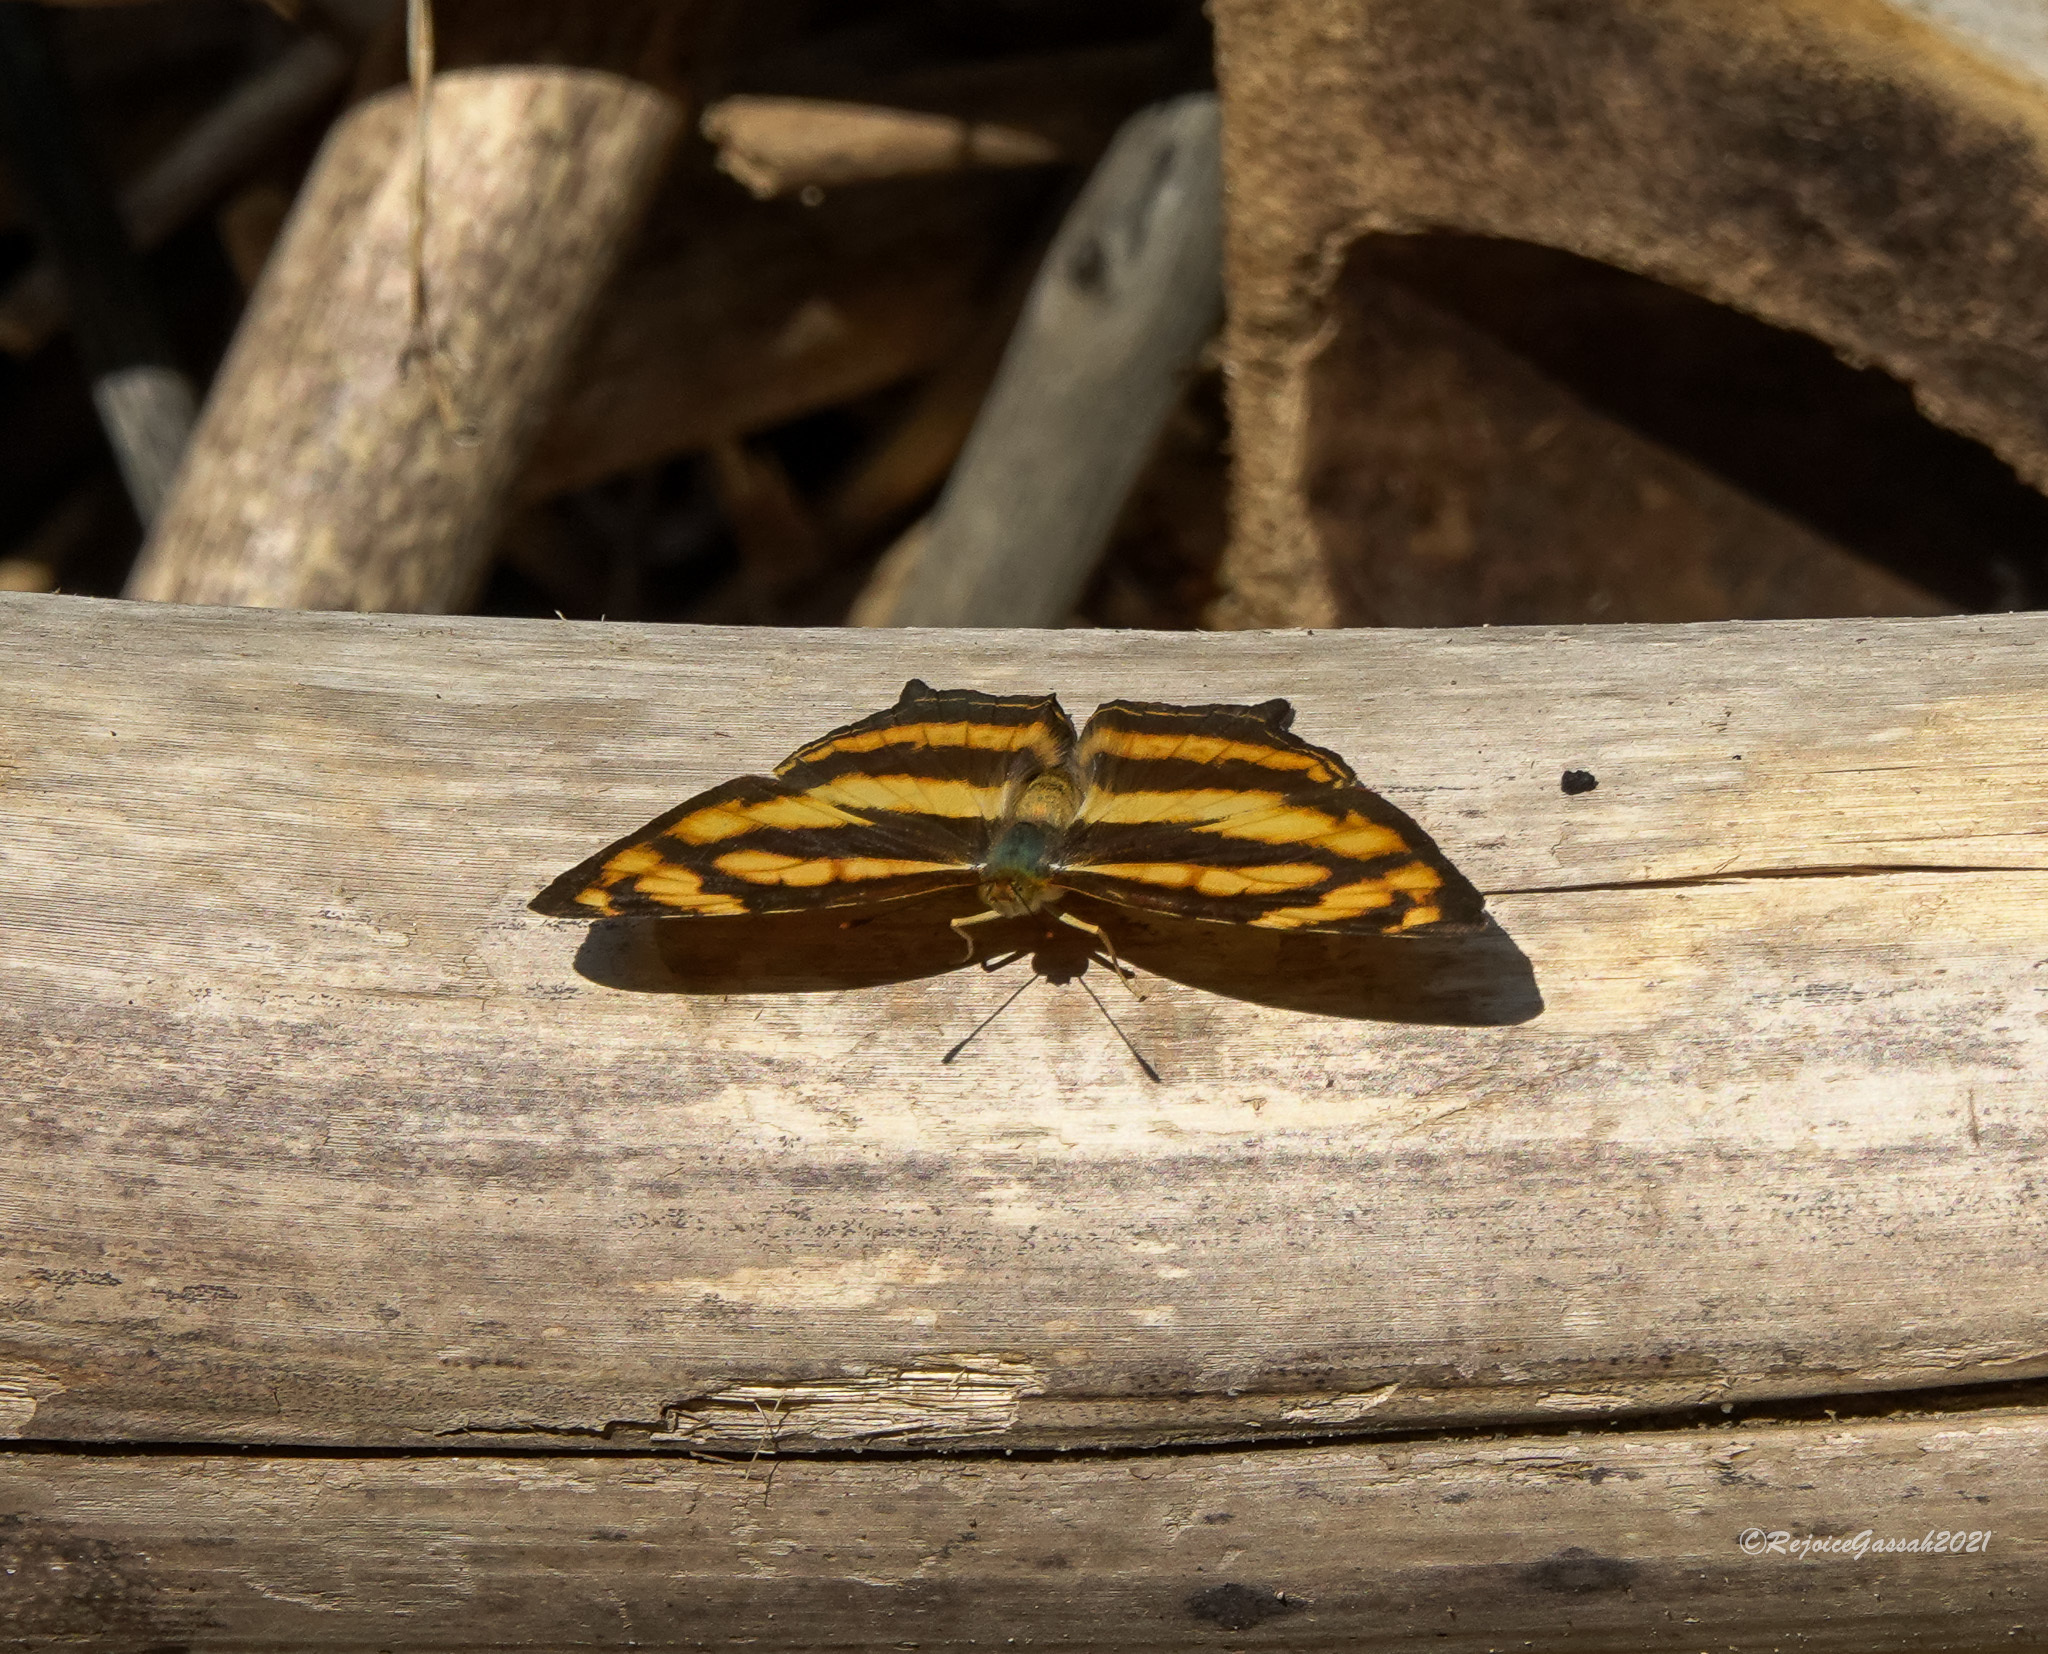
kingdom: Animalia
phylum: Arthropoda
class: Insecta
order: Lepidoptera
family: Nymphalidae
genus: Symbrenthia
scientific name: Symbrenthia hypselis
